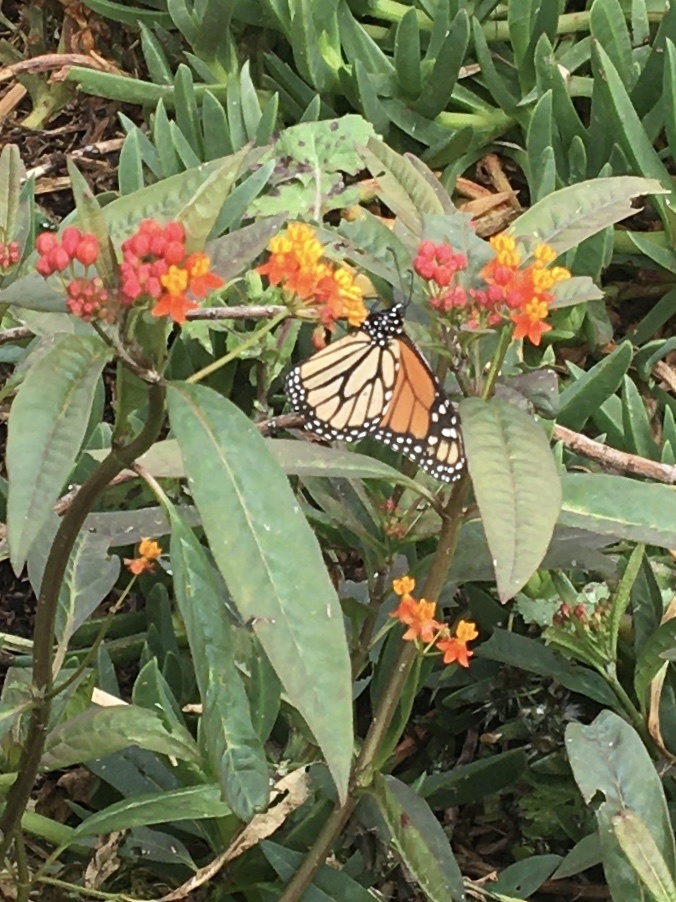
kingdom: Animalia
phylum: Arthropoda
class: Insecta
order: Lepidoptera
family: Nymphalidae
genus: Danaus
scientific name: Danaus plexippus
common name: Monarch
